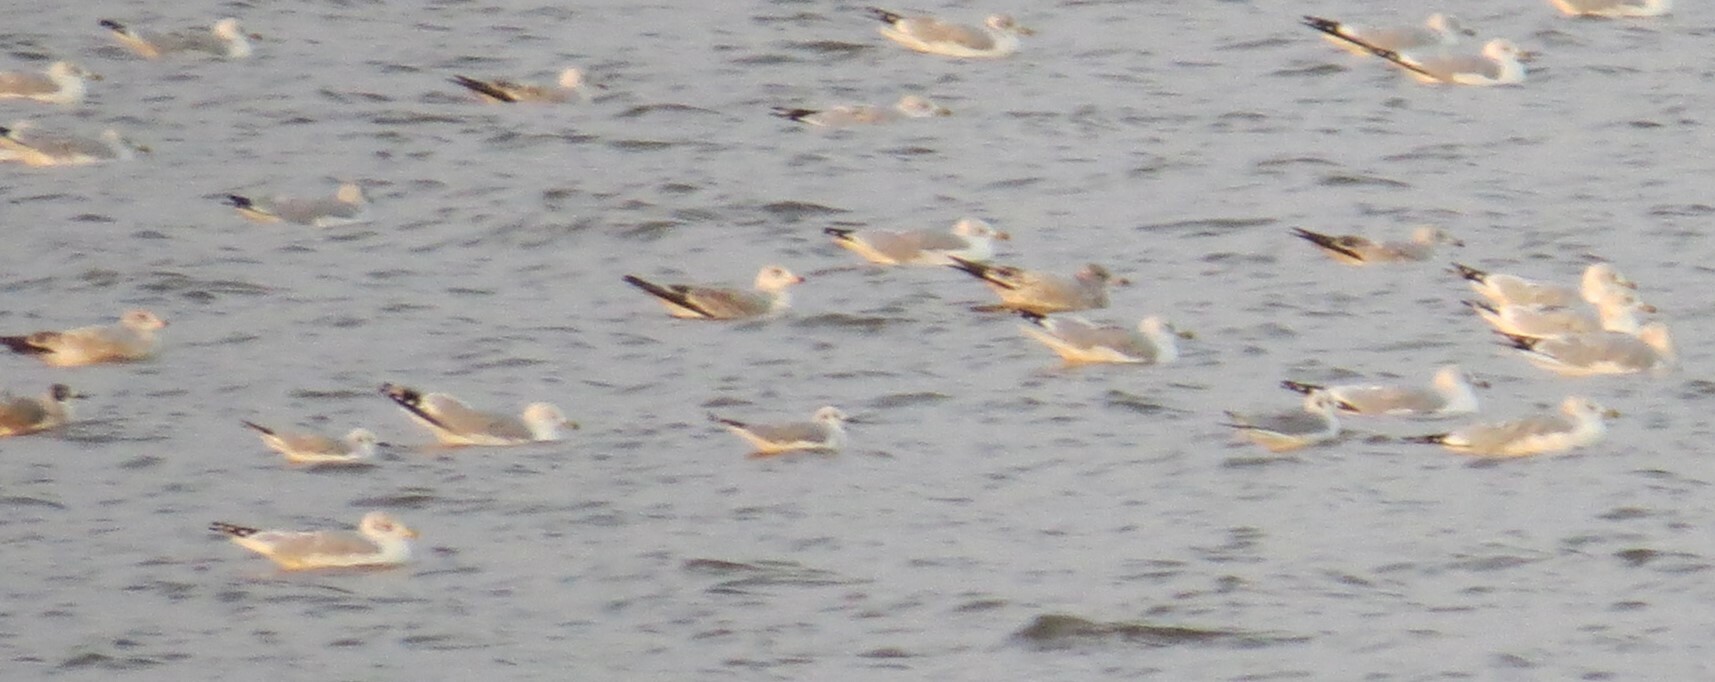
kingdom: Animalia
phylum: Chordata
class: Aves
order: Charadriiformes
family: Laridae
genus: Chroicocephalus
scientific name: Chroicocephalus philadelphia
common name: Bonaparte's gull
